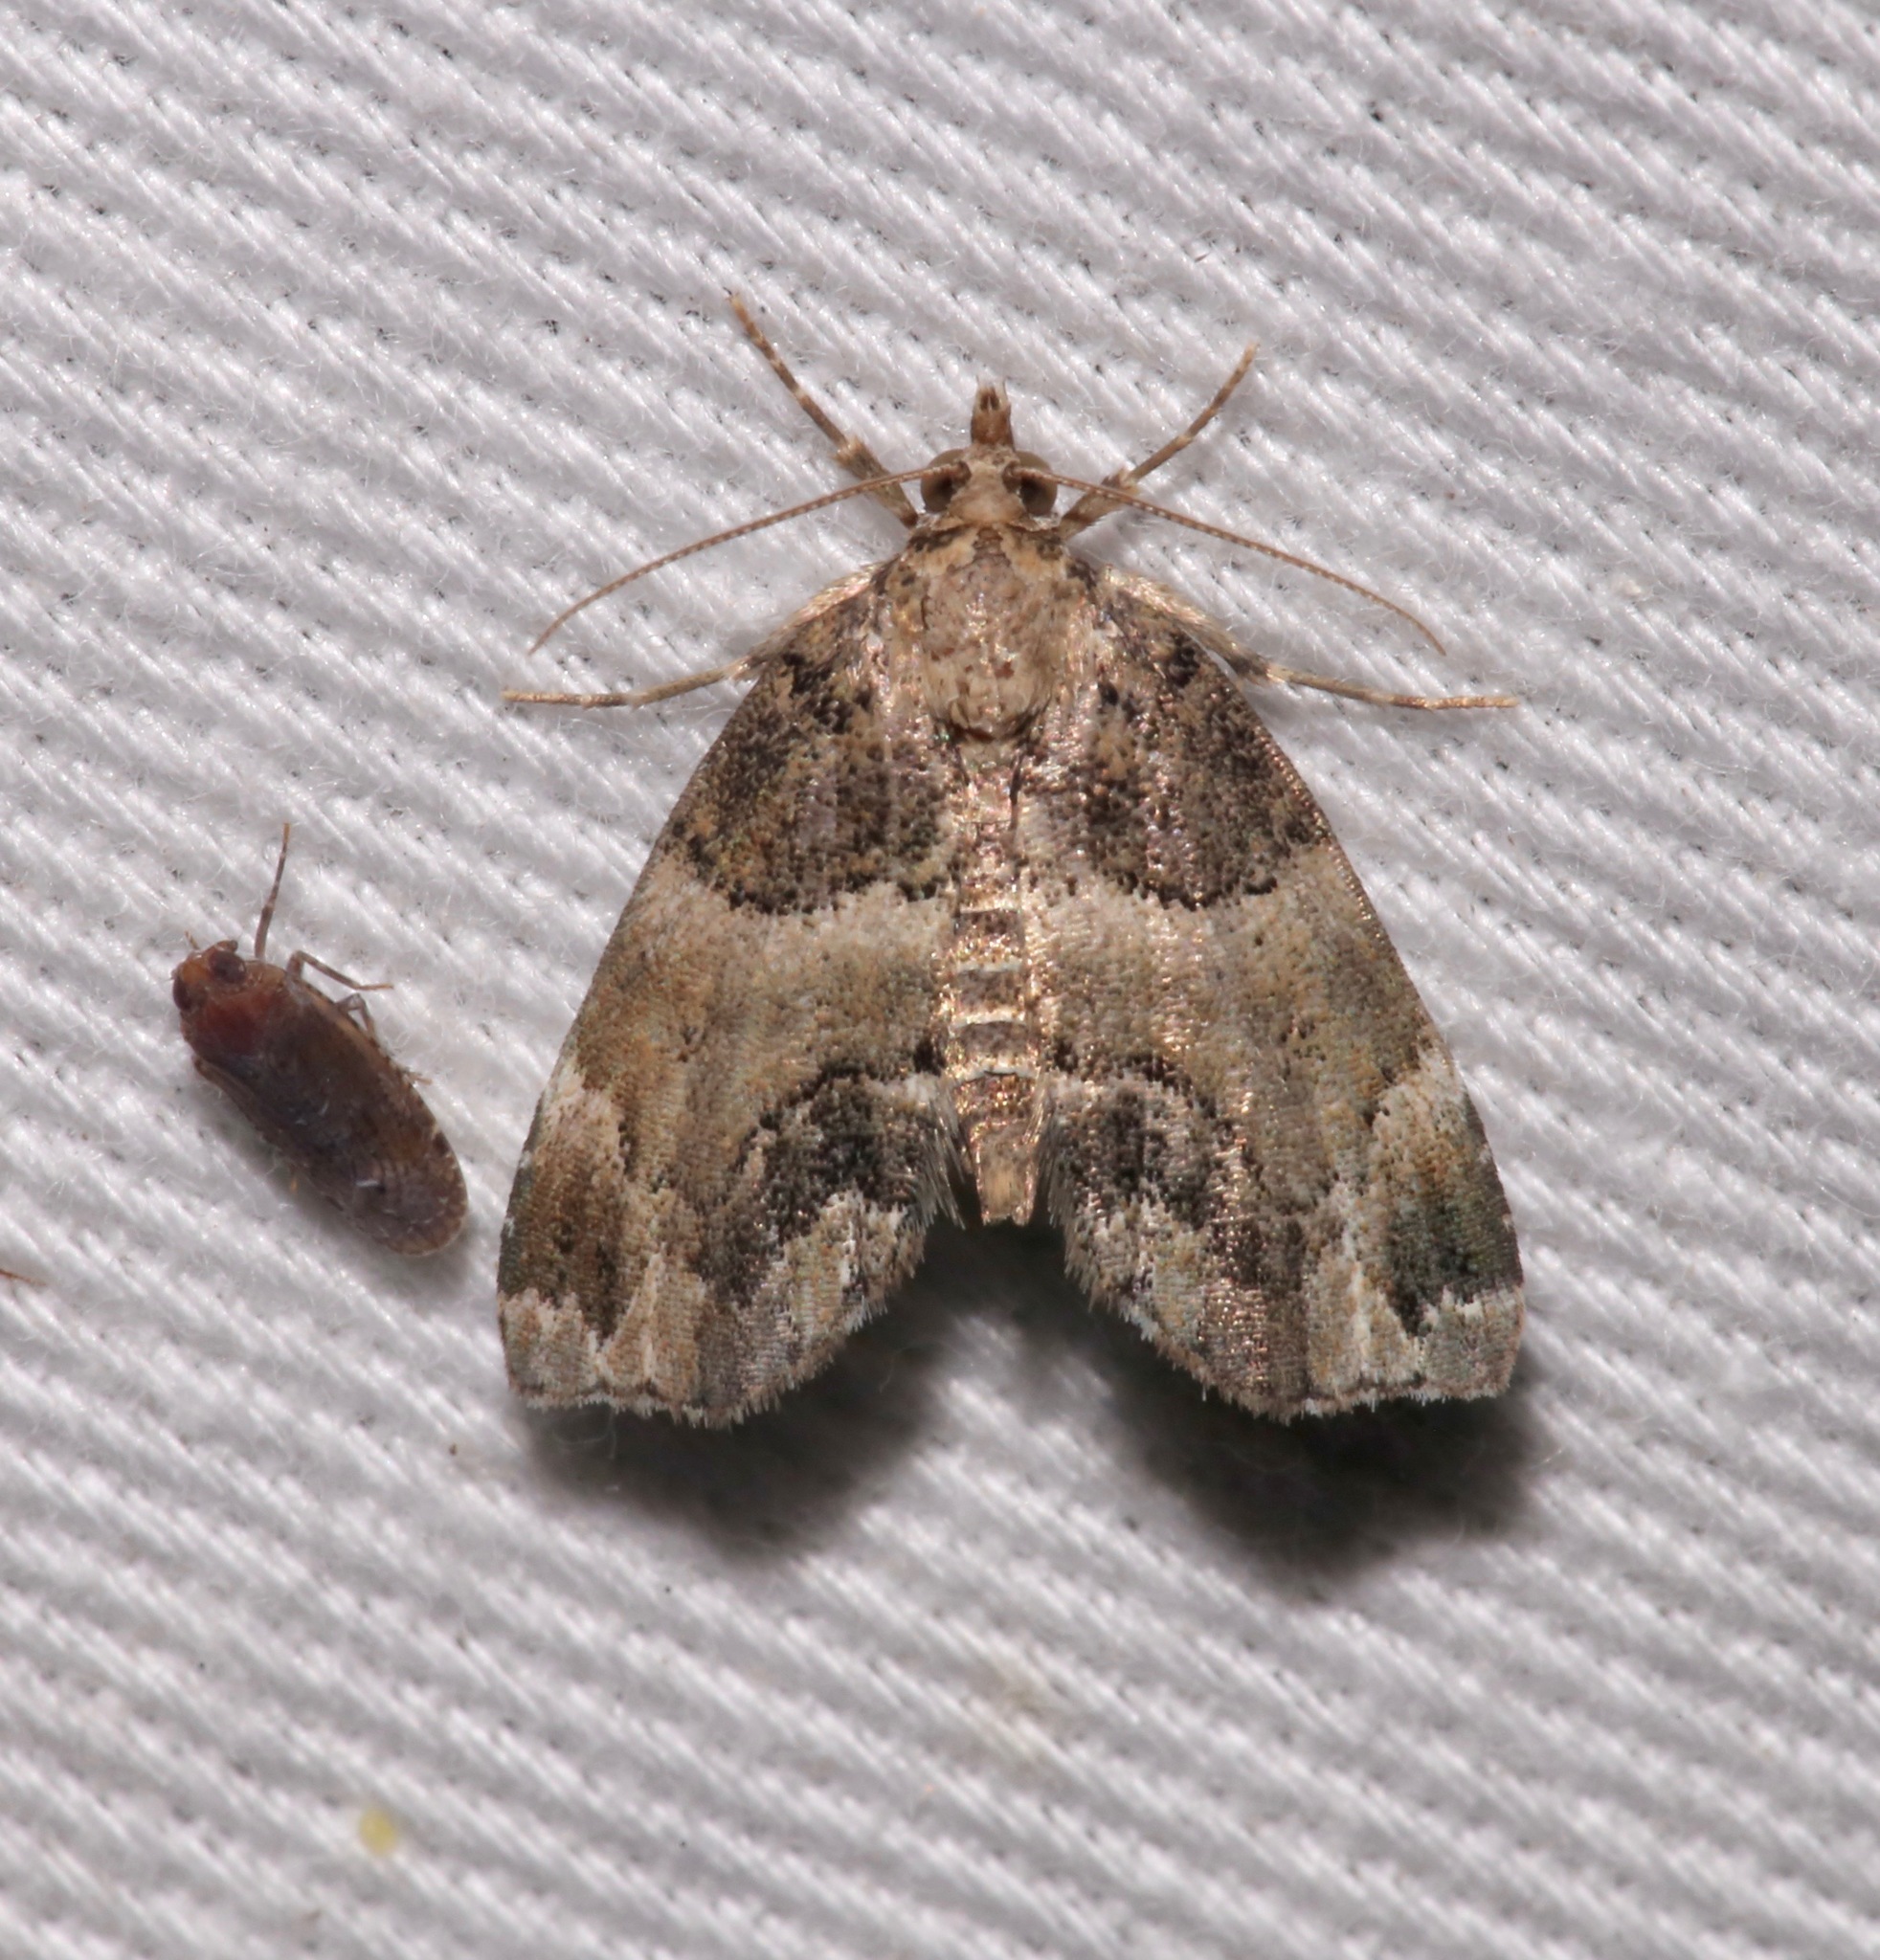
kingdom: Animalia
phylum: Arthropoda
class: Insecta
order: Lepidoptera
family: Erebidae
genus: Cutina
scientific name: Cutina distincta
